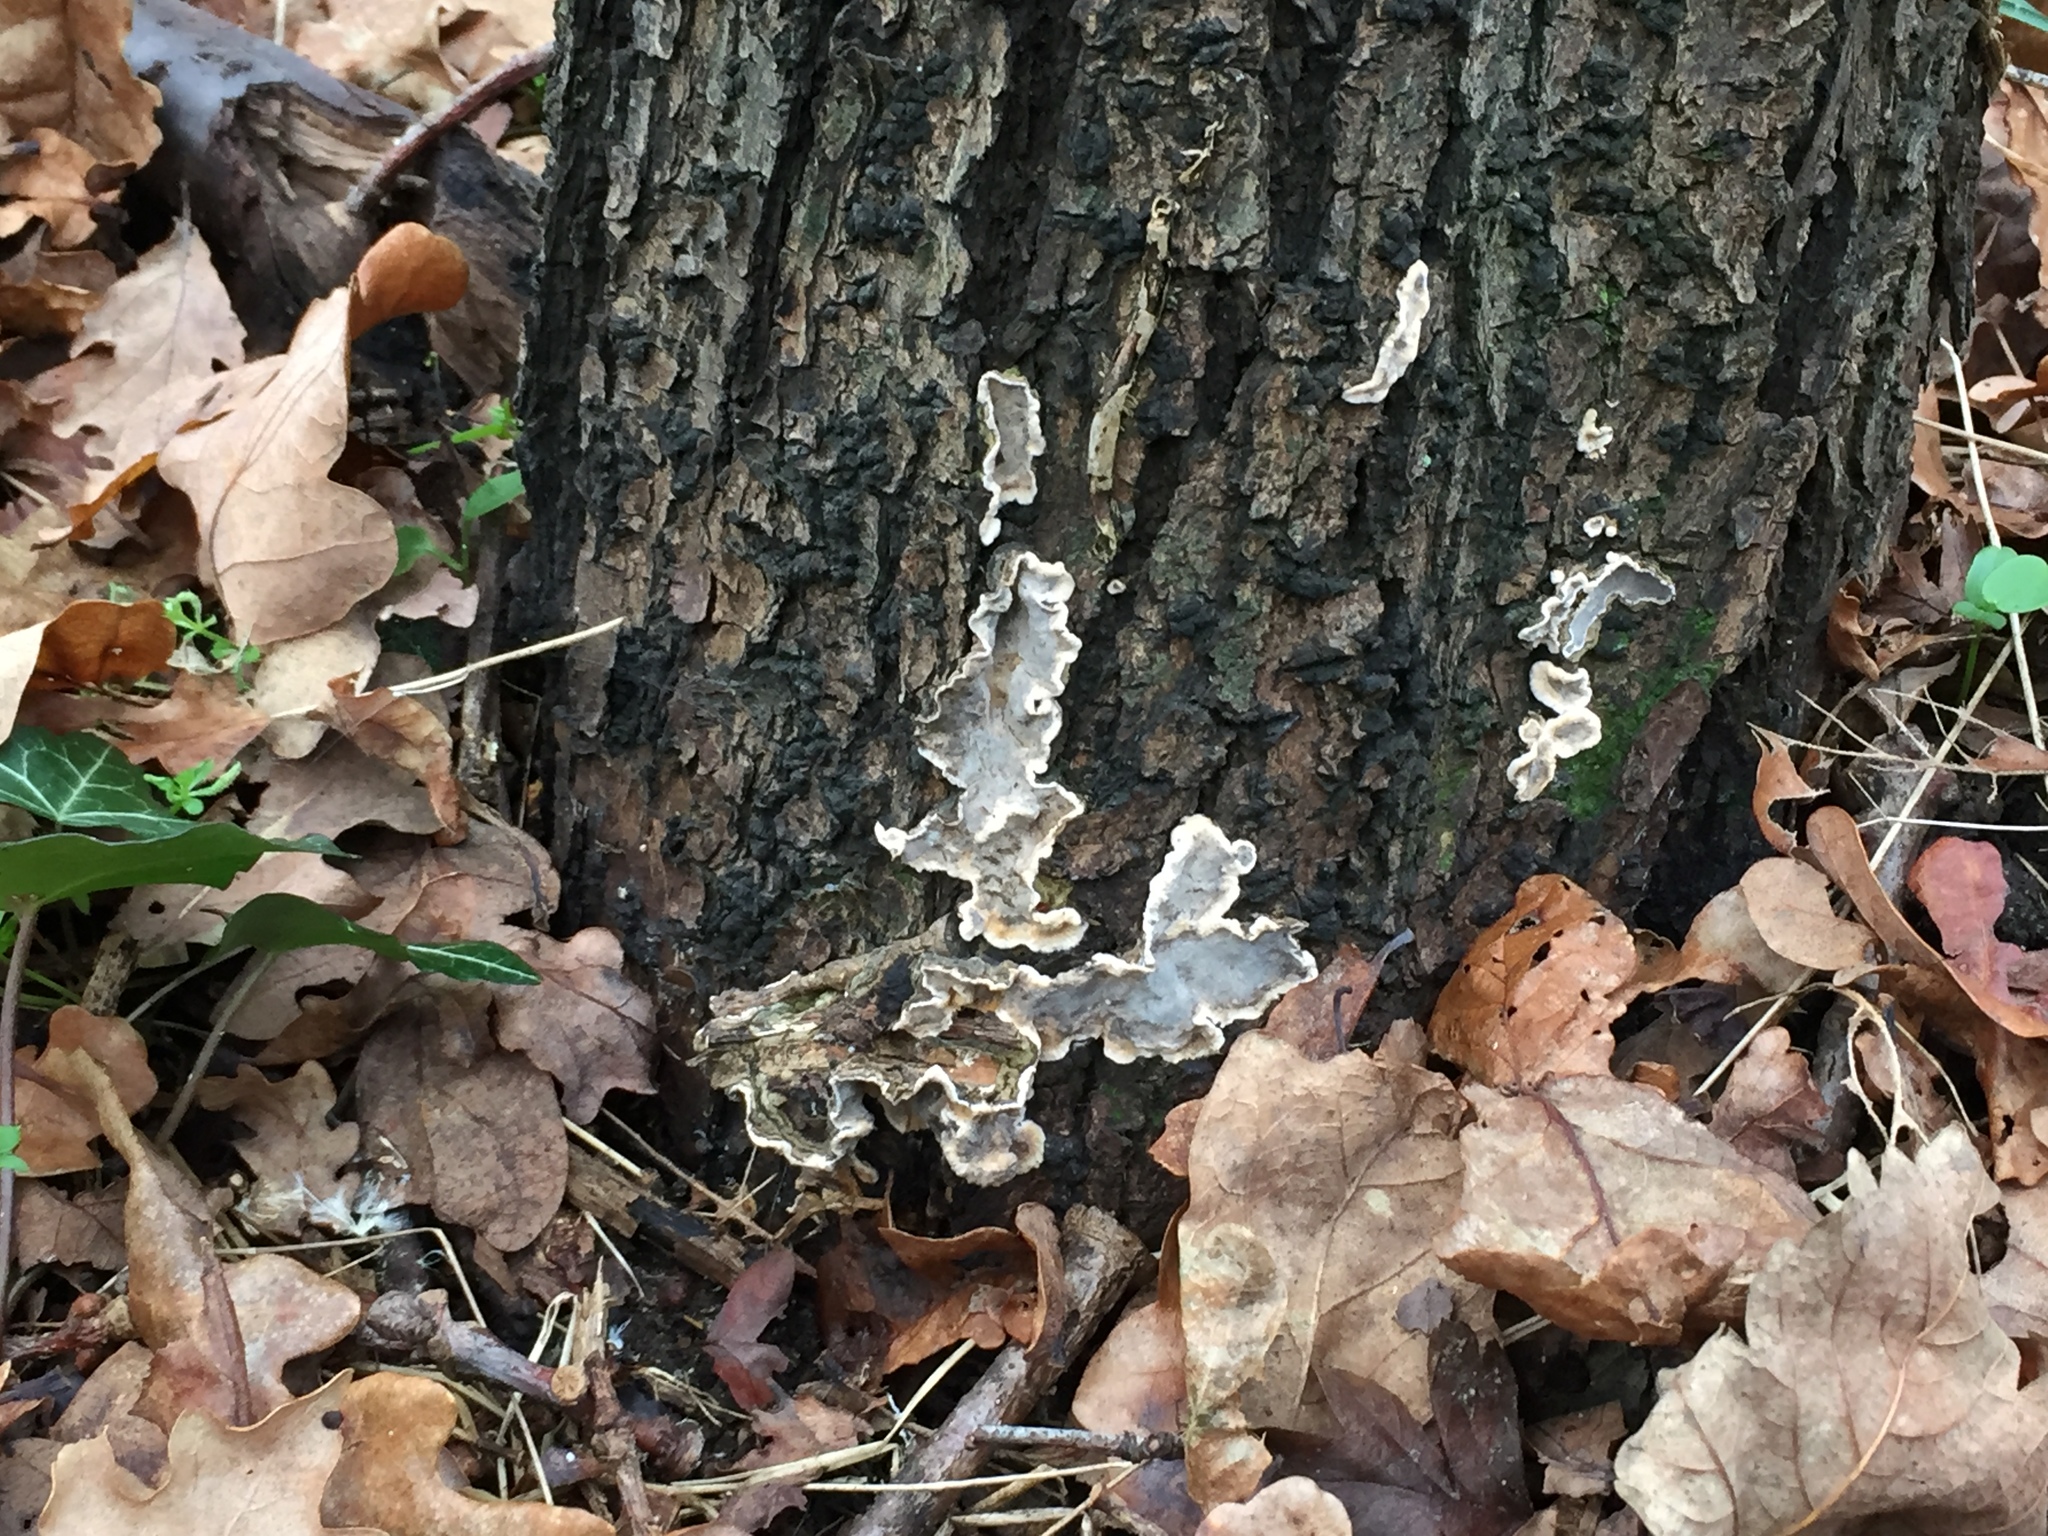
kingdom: Fungi
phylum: Ascomycota
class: Sordariomycetes
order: Xylariales
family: Xylariaceae
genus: Kretzschmaria
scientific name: Kretzschmaria deusta
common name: Brittle cinder
